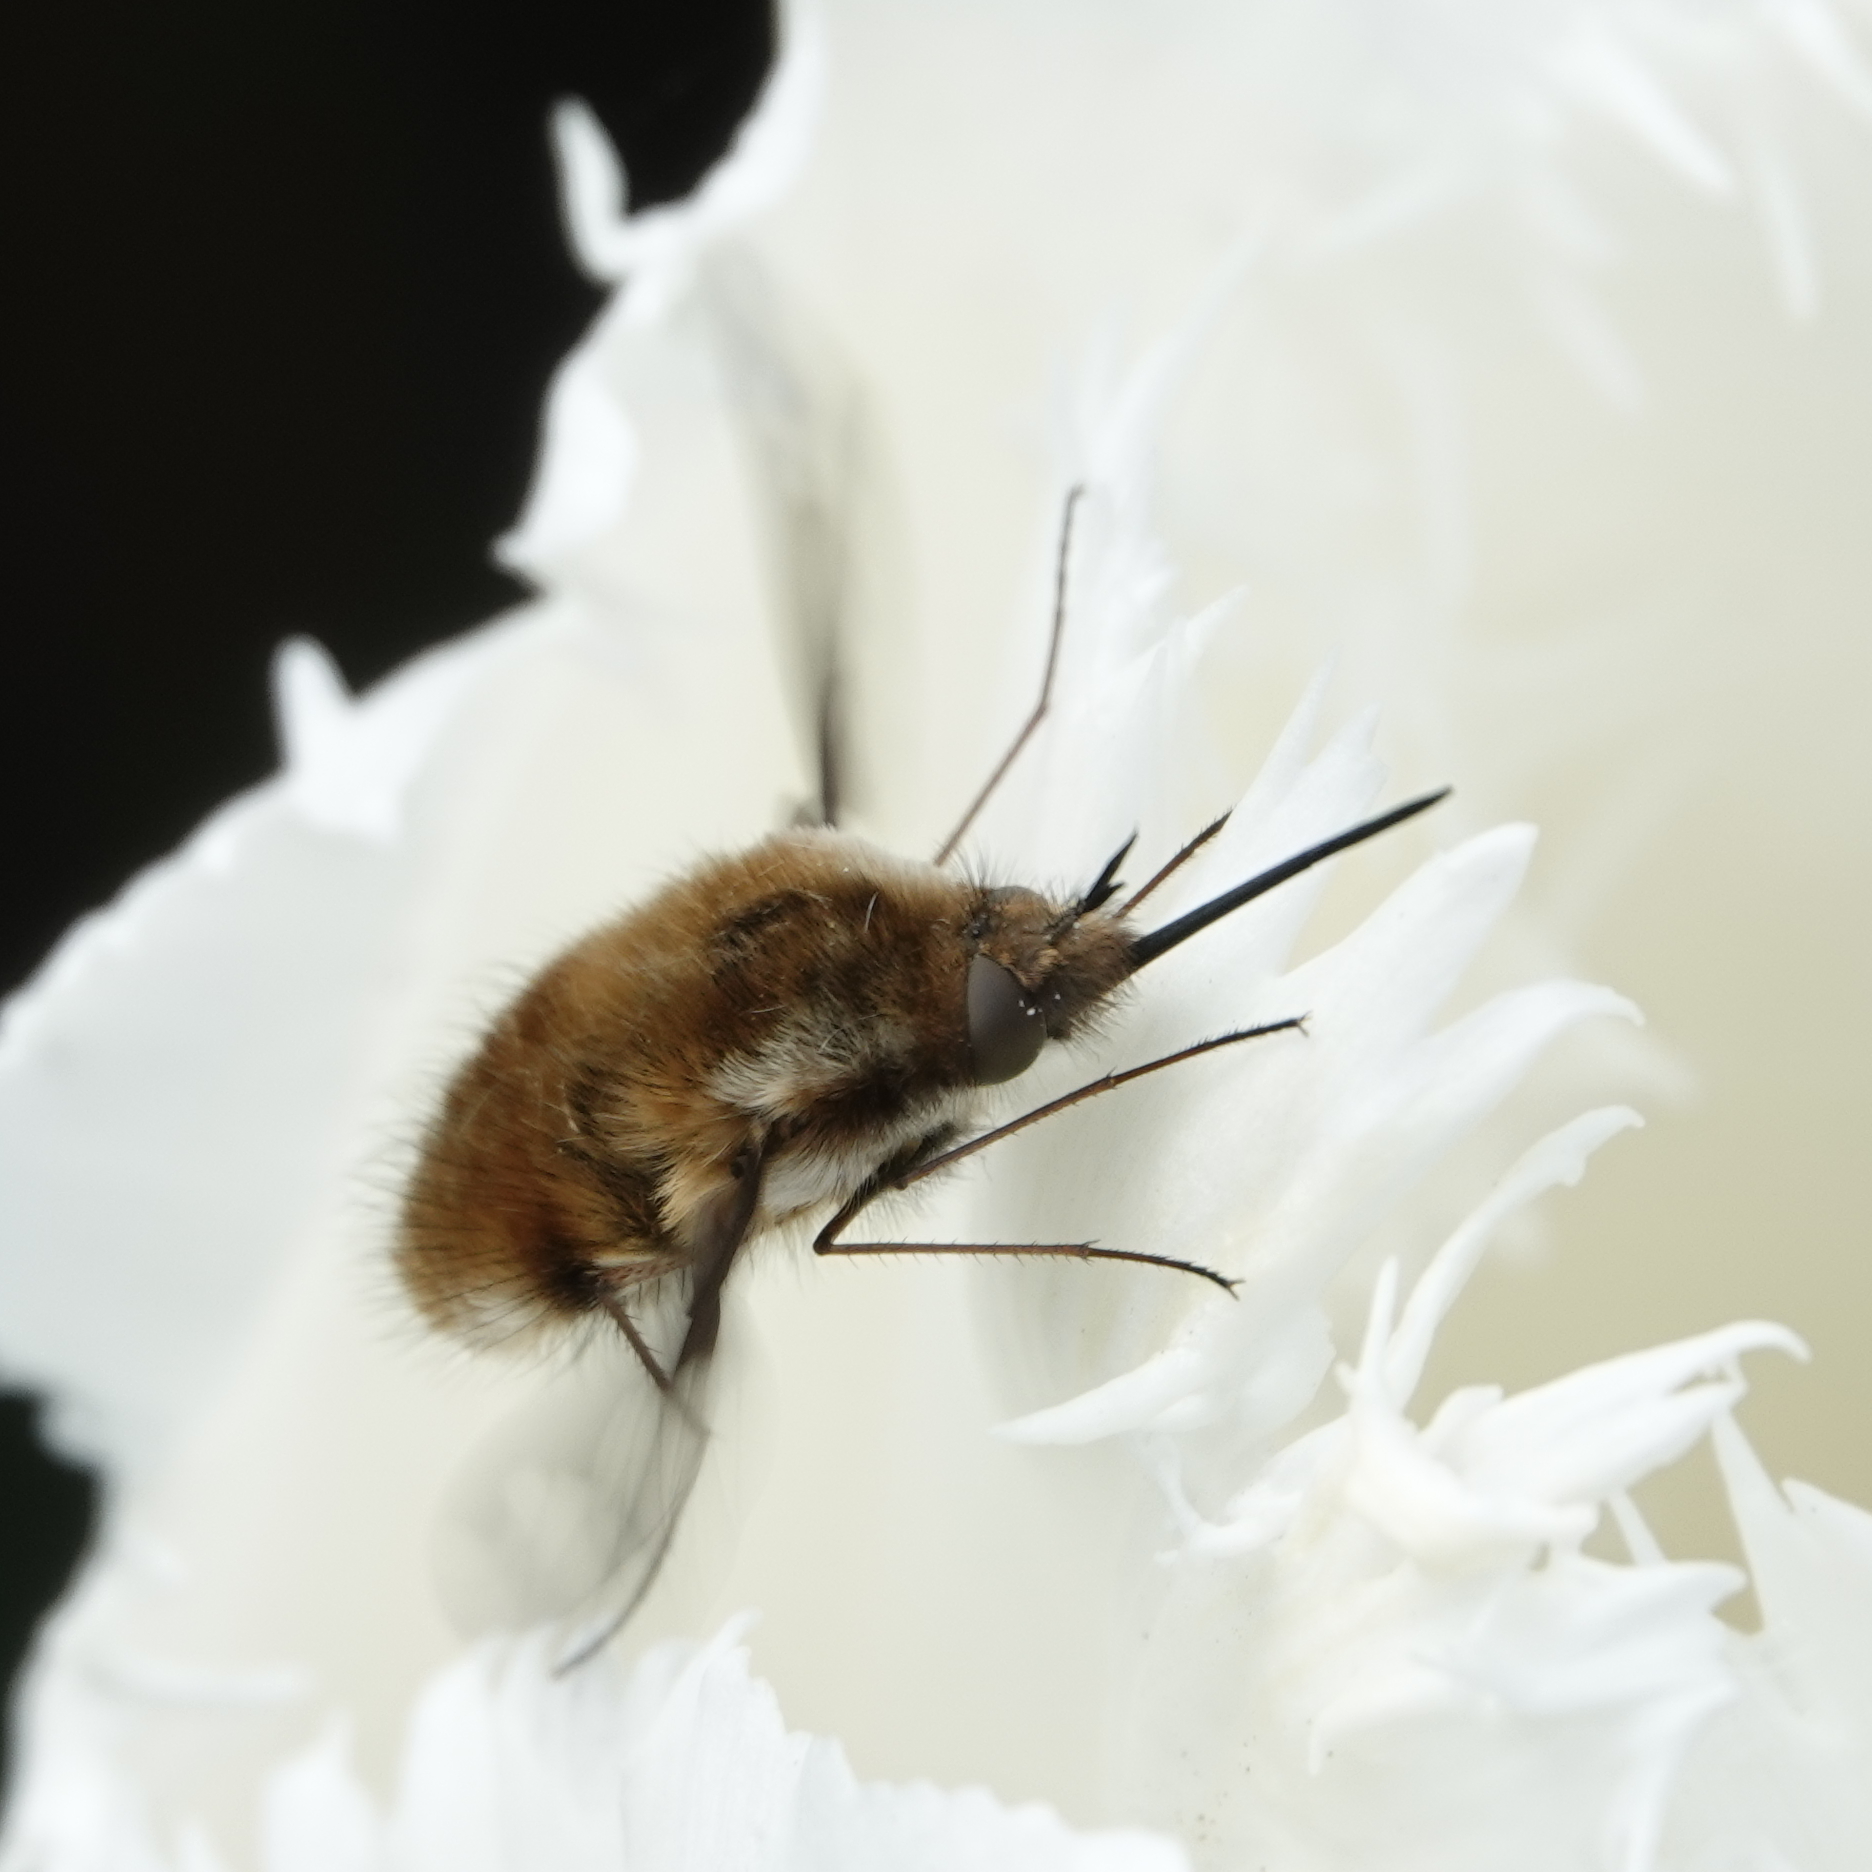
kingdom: Animalia
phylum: Arthropoda
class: Insecta
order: Diptera
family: Bombyliidae
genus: Bombylius
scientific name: Bombylius major
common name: Bee fly
